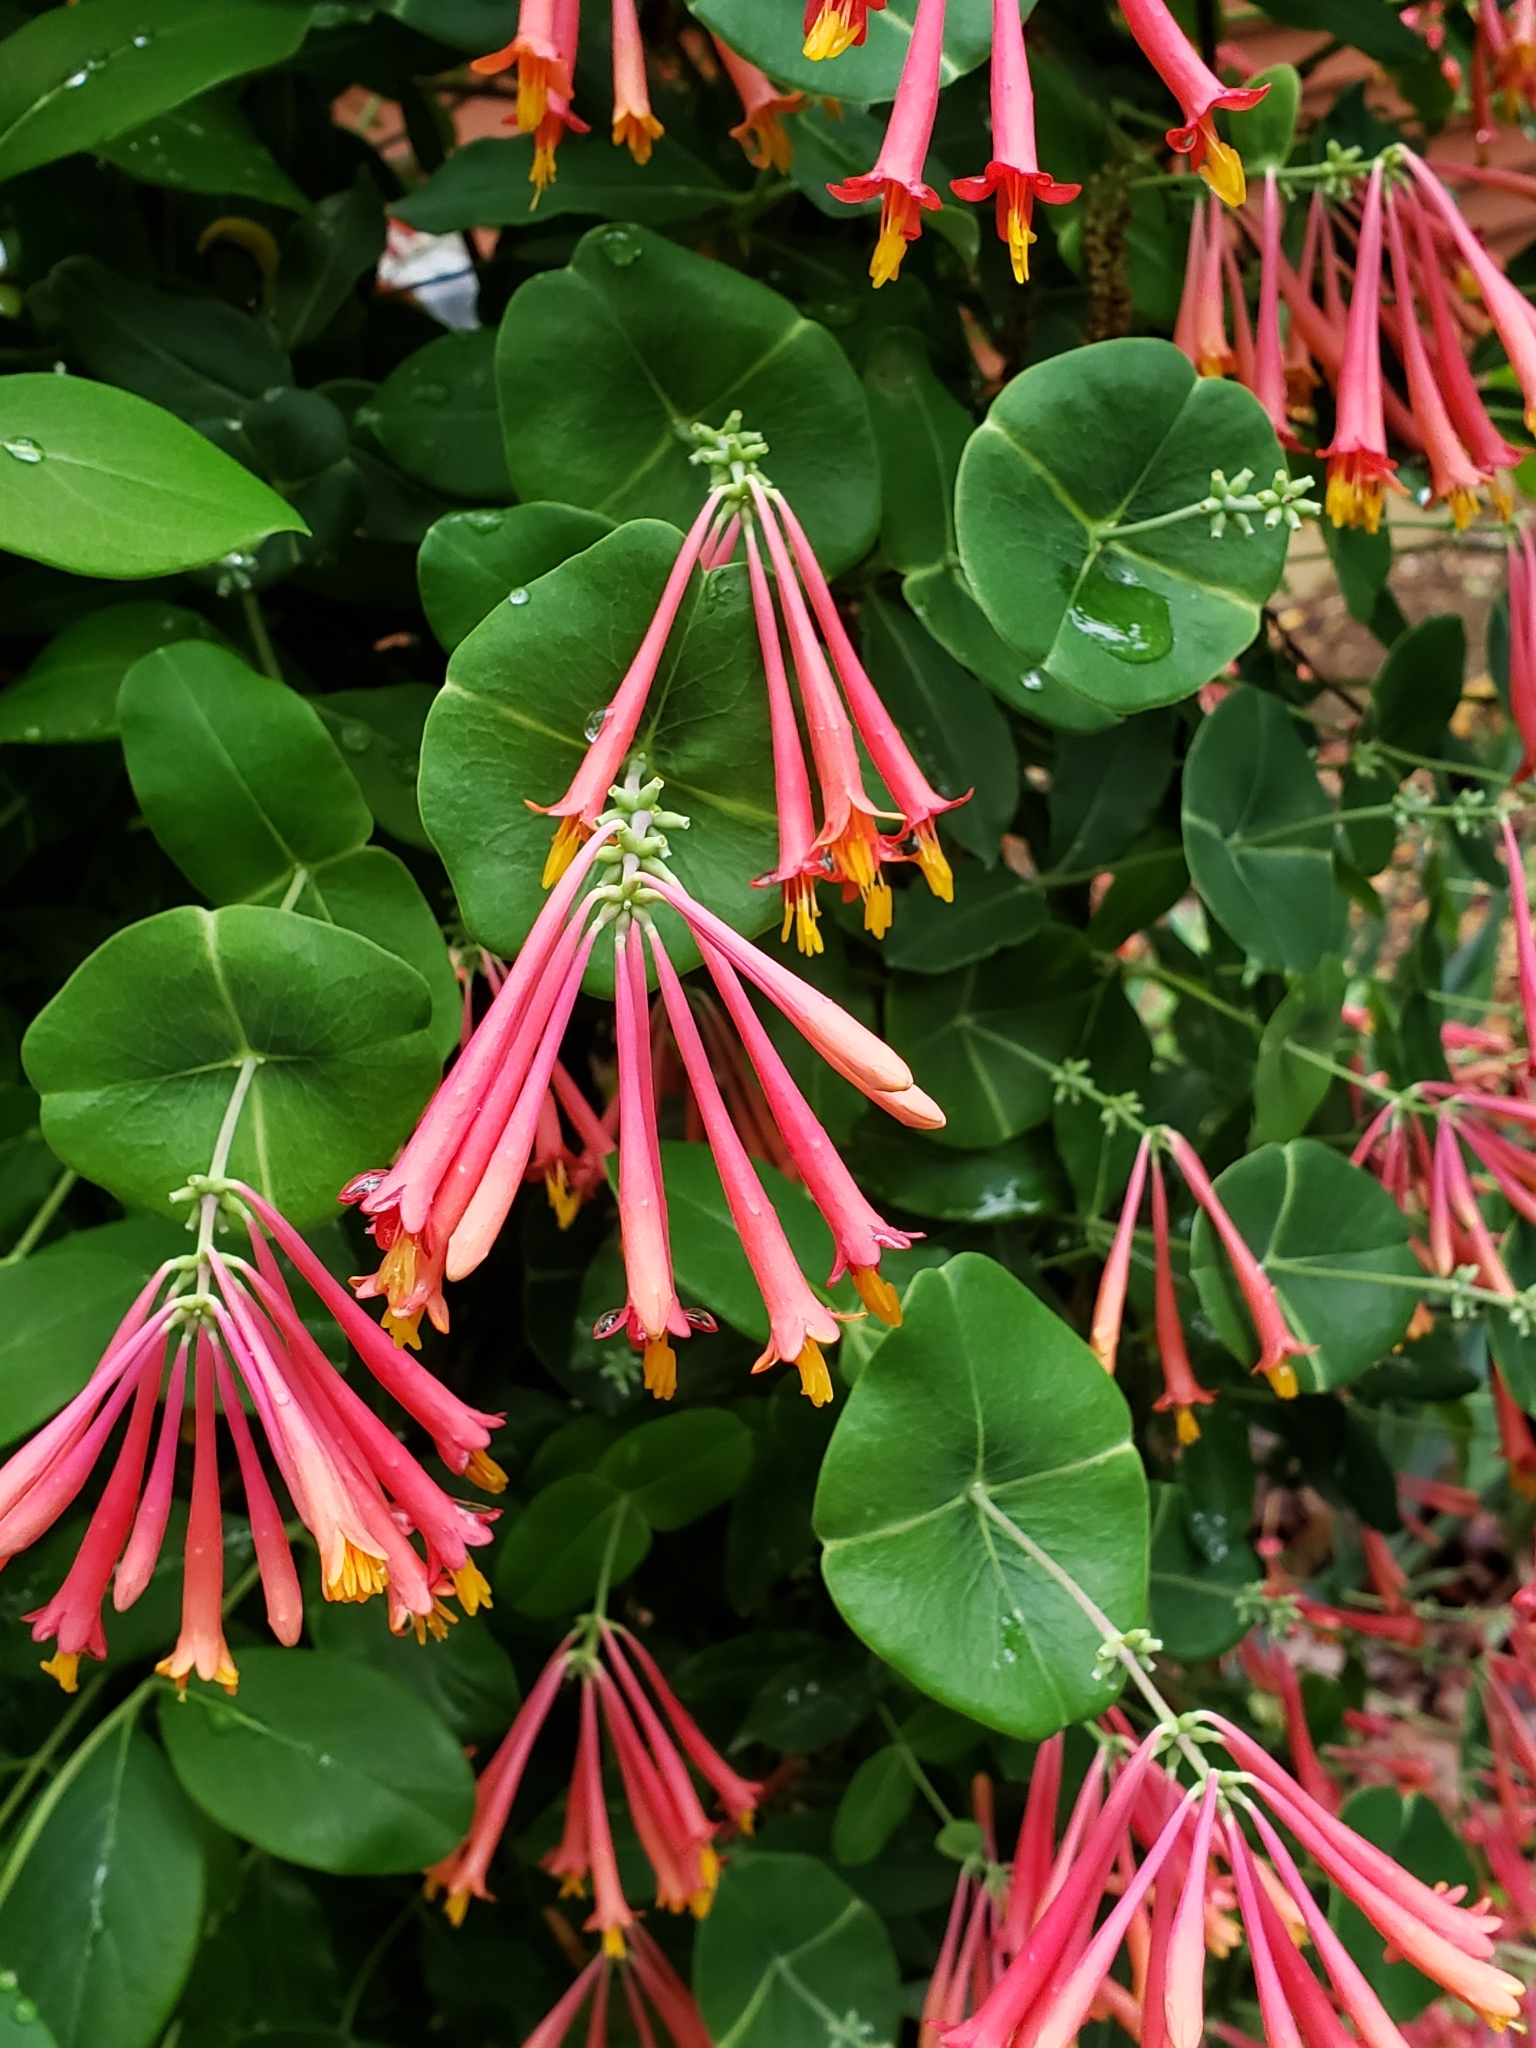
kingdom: Plantae
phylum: Tracheophyta
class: Magnoliopsida
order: Dipsacales
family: Caprifoliaceae
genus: Lonicera
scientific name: Lonicera sempervirens
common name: Coral honeysuckle
